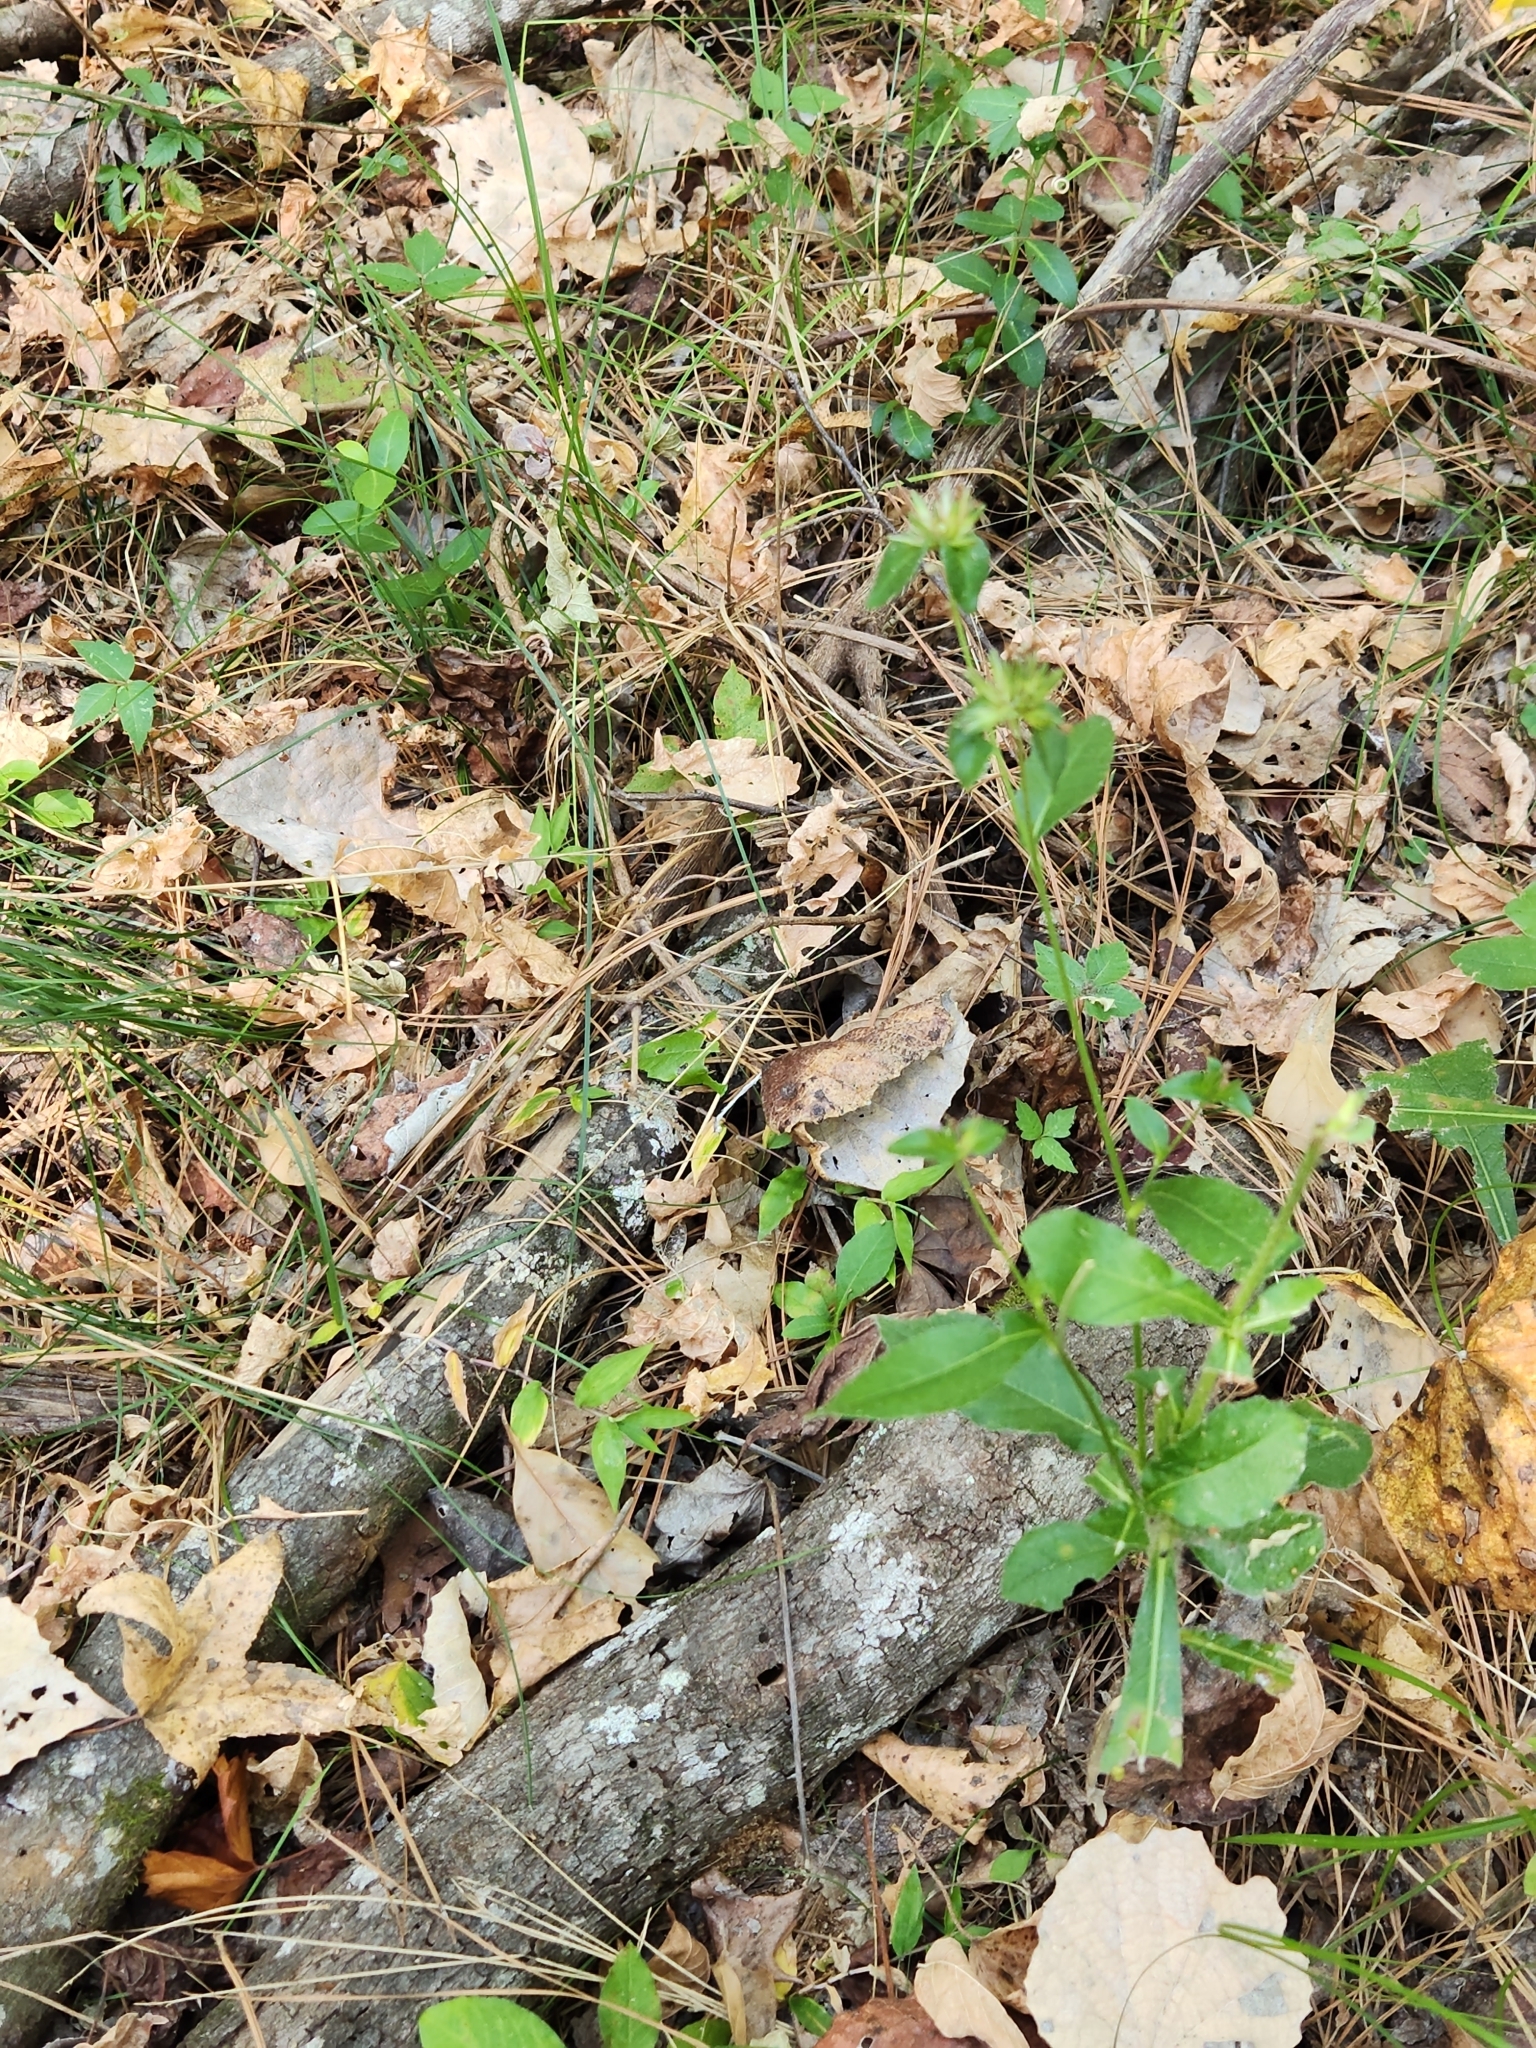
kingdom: Plantae
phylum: Tracheophyta
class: Magnoliopsida
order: Asterales
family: Asteraceae
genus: Elephantopus
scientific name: Elephantopus carolinianus
